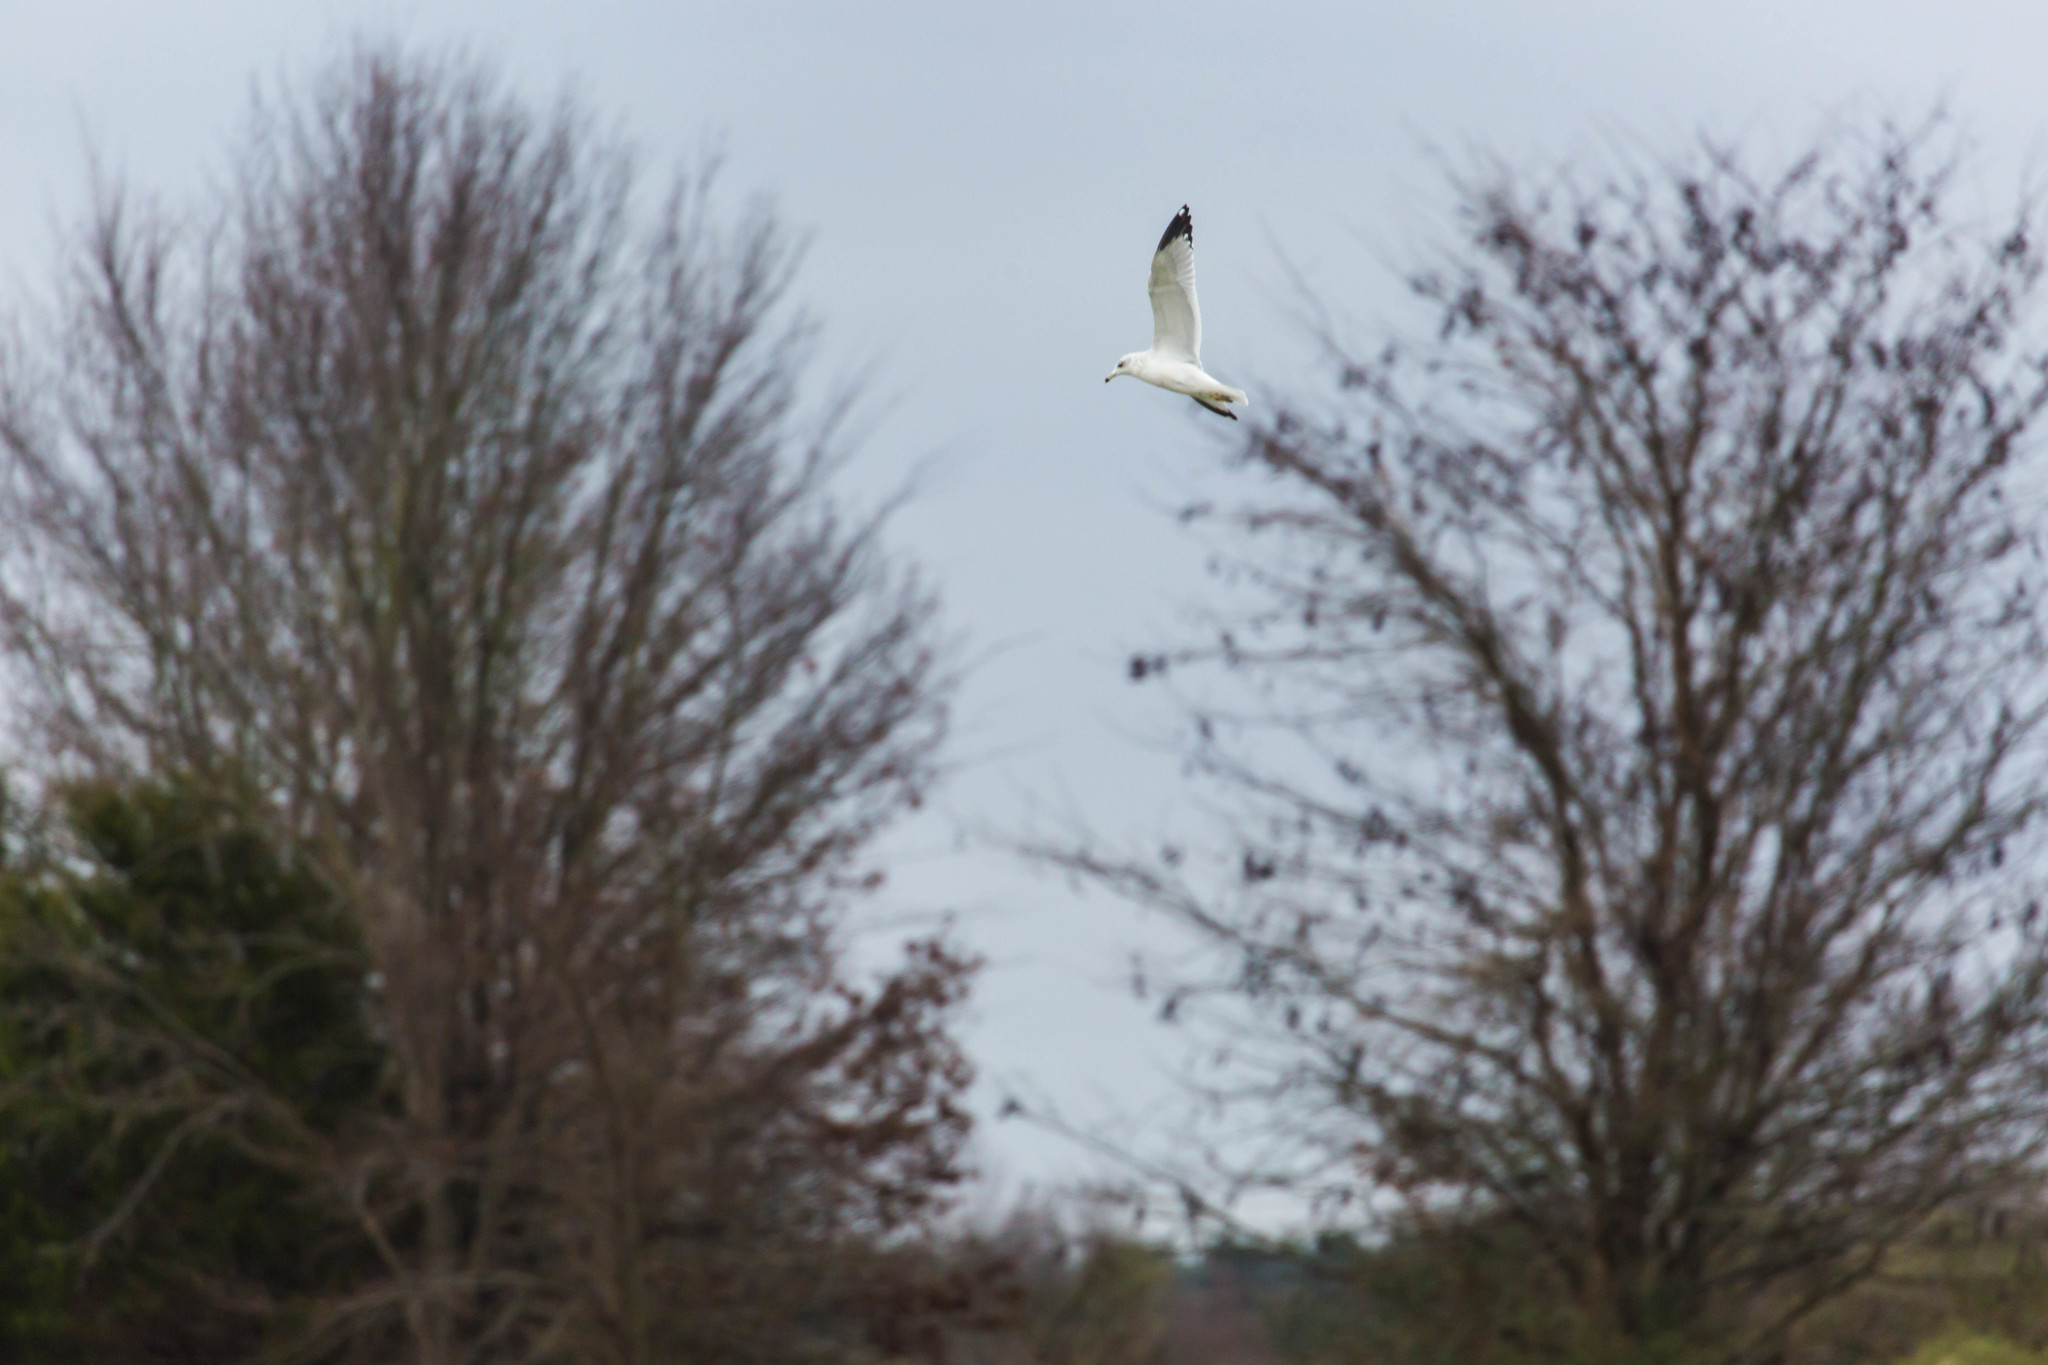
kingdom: Animalia
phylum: Chordata
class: Aves
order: Charadriiformes
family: Laridae
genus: Larus
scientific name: Larus delawarensis
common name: Ring-billed gull
